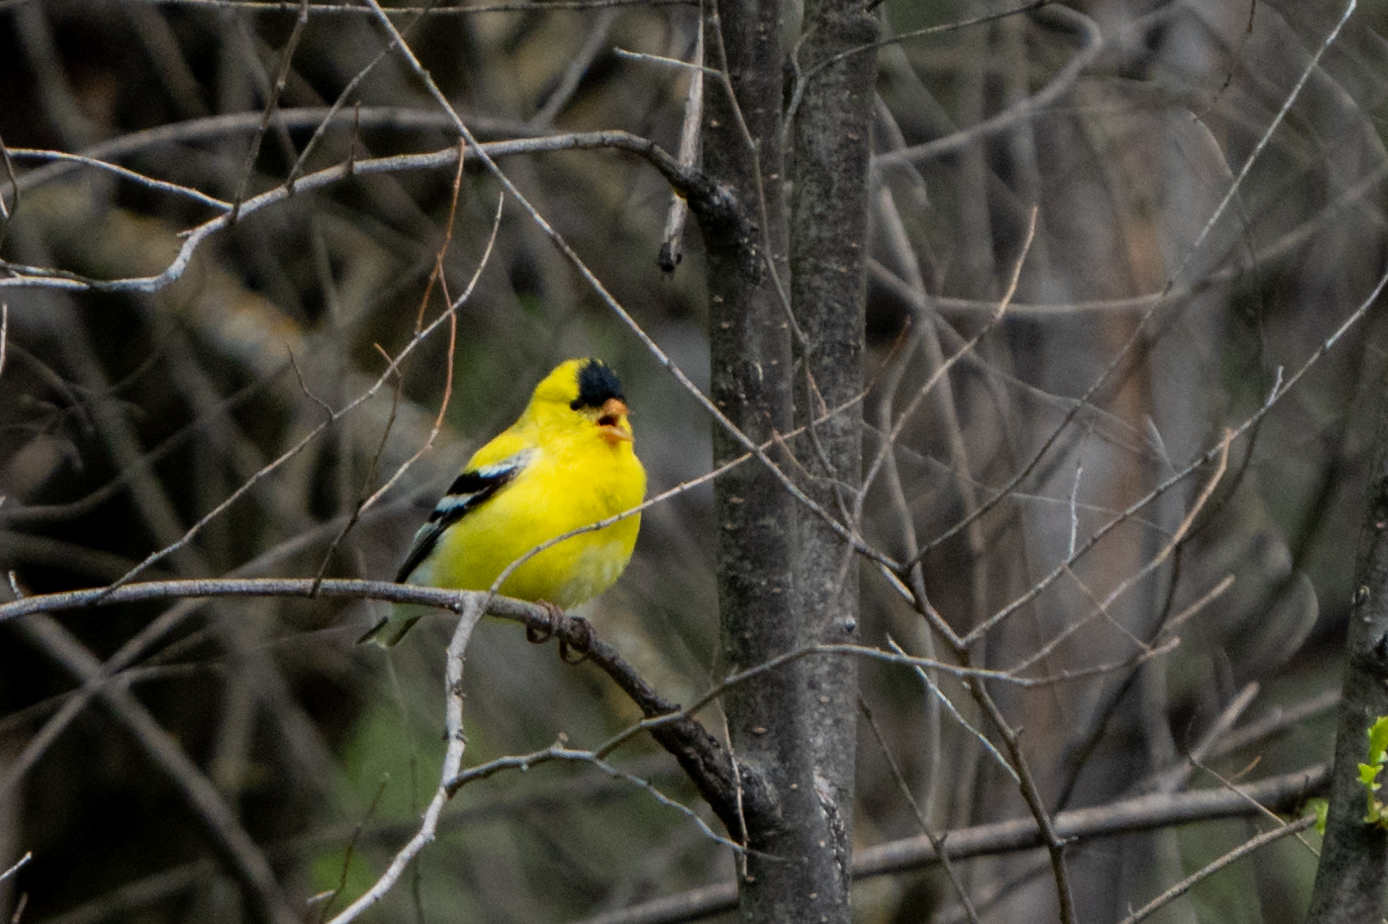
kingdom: Animalia
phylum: Chordata
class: Aves
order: Passeriformes
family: Fringillidae
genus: Spinus
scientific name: Spinus tristis
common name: American goldfinch
